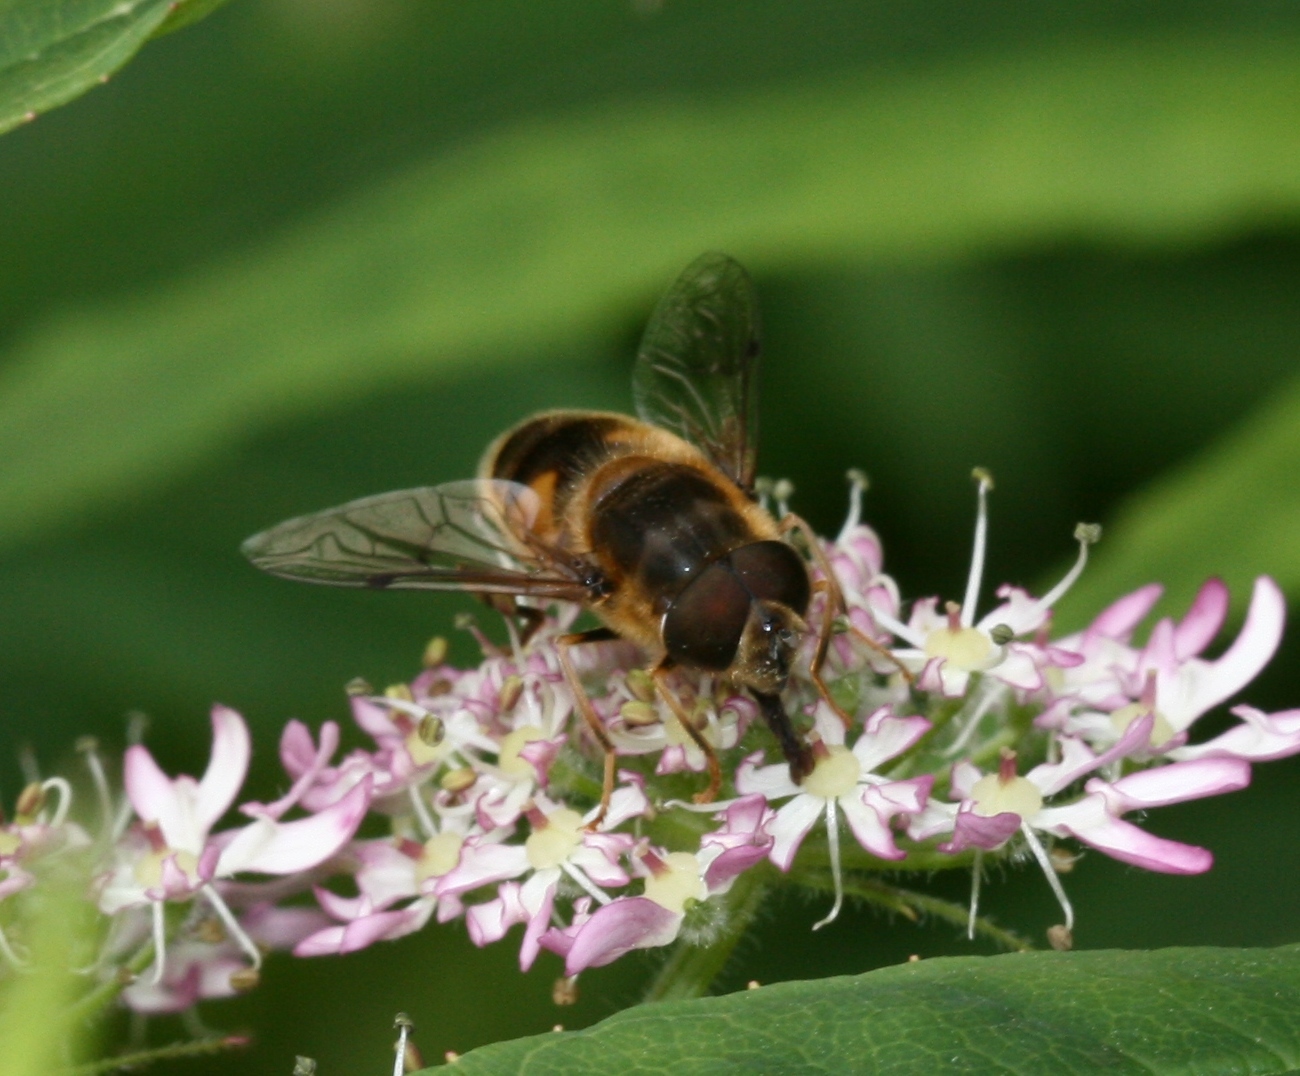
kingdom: Animalia
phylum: Arthropoda
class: Insecta
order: Diptera
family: Syrphidae
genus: Eristalis
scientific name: Eristalis pertinax
